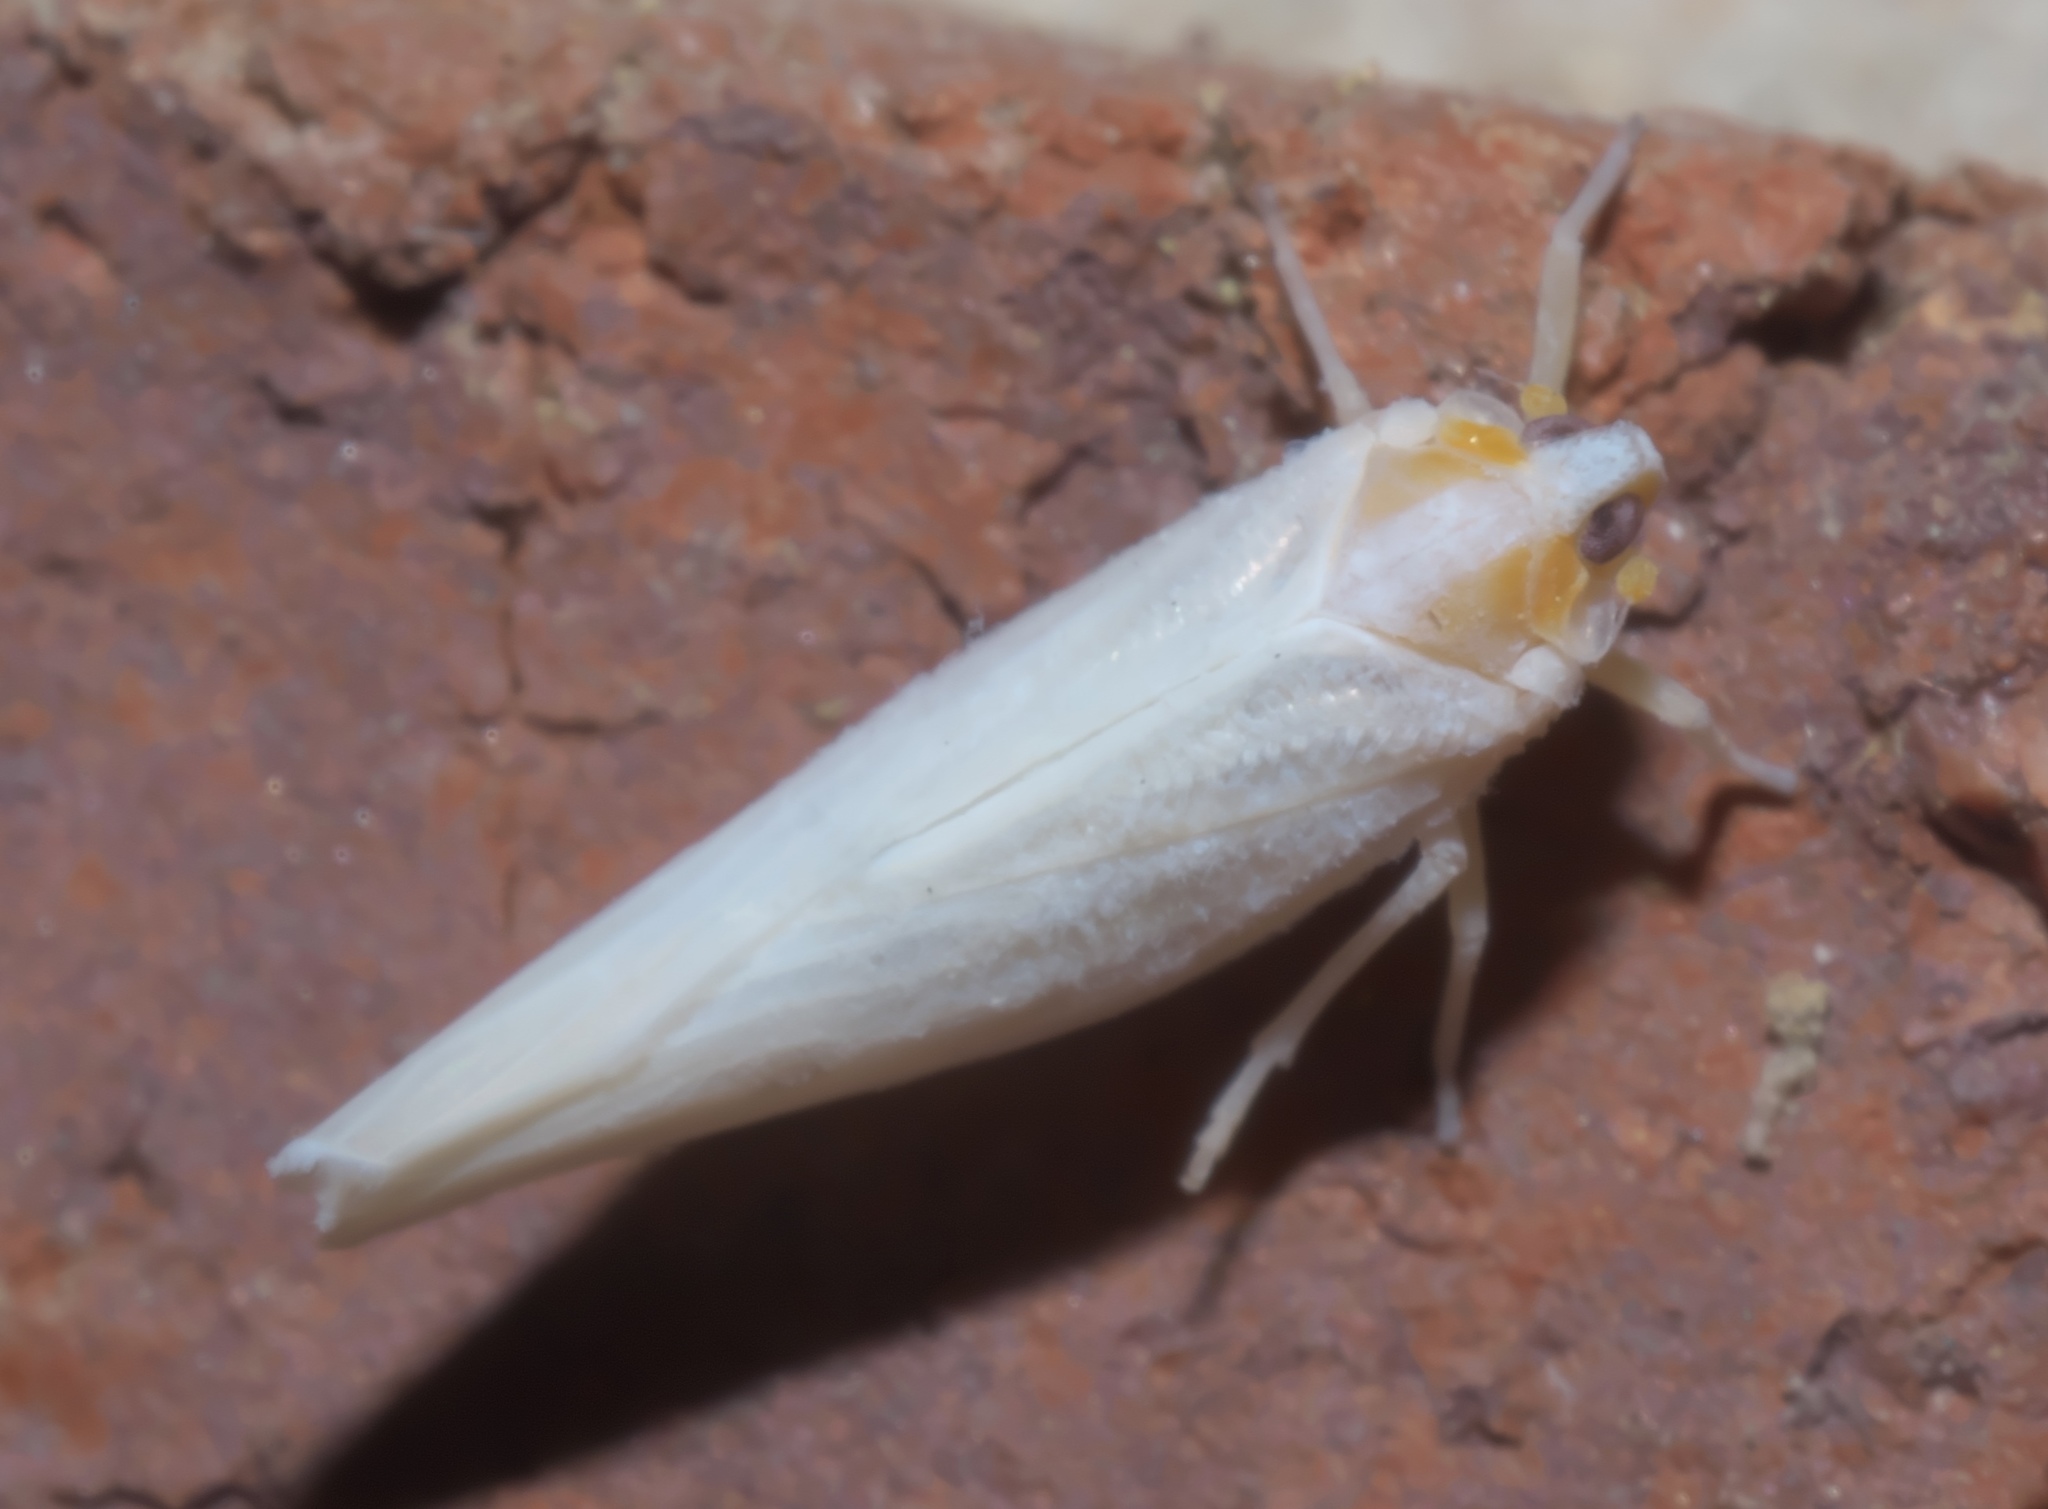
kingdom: Animalia
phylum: Arthropoda
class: Insecta
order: Hemiptera
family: Derbidae
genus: Neocenchrea
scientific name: Neocenchrea heidemanni
